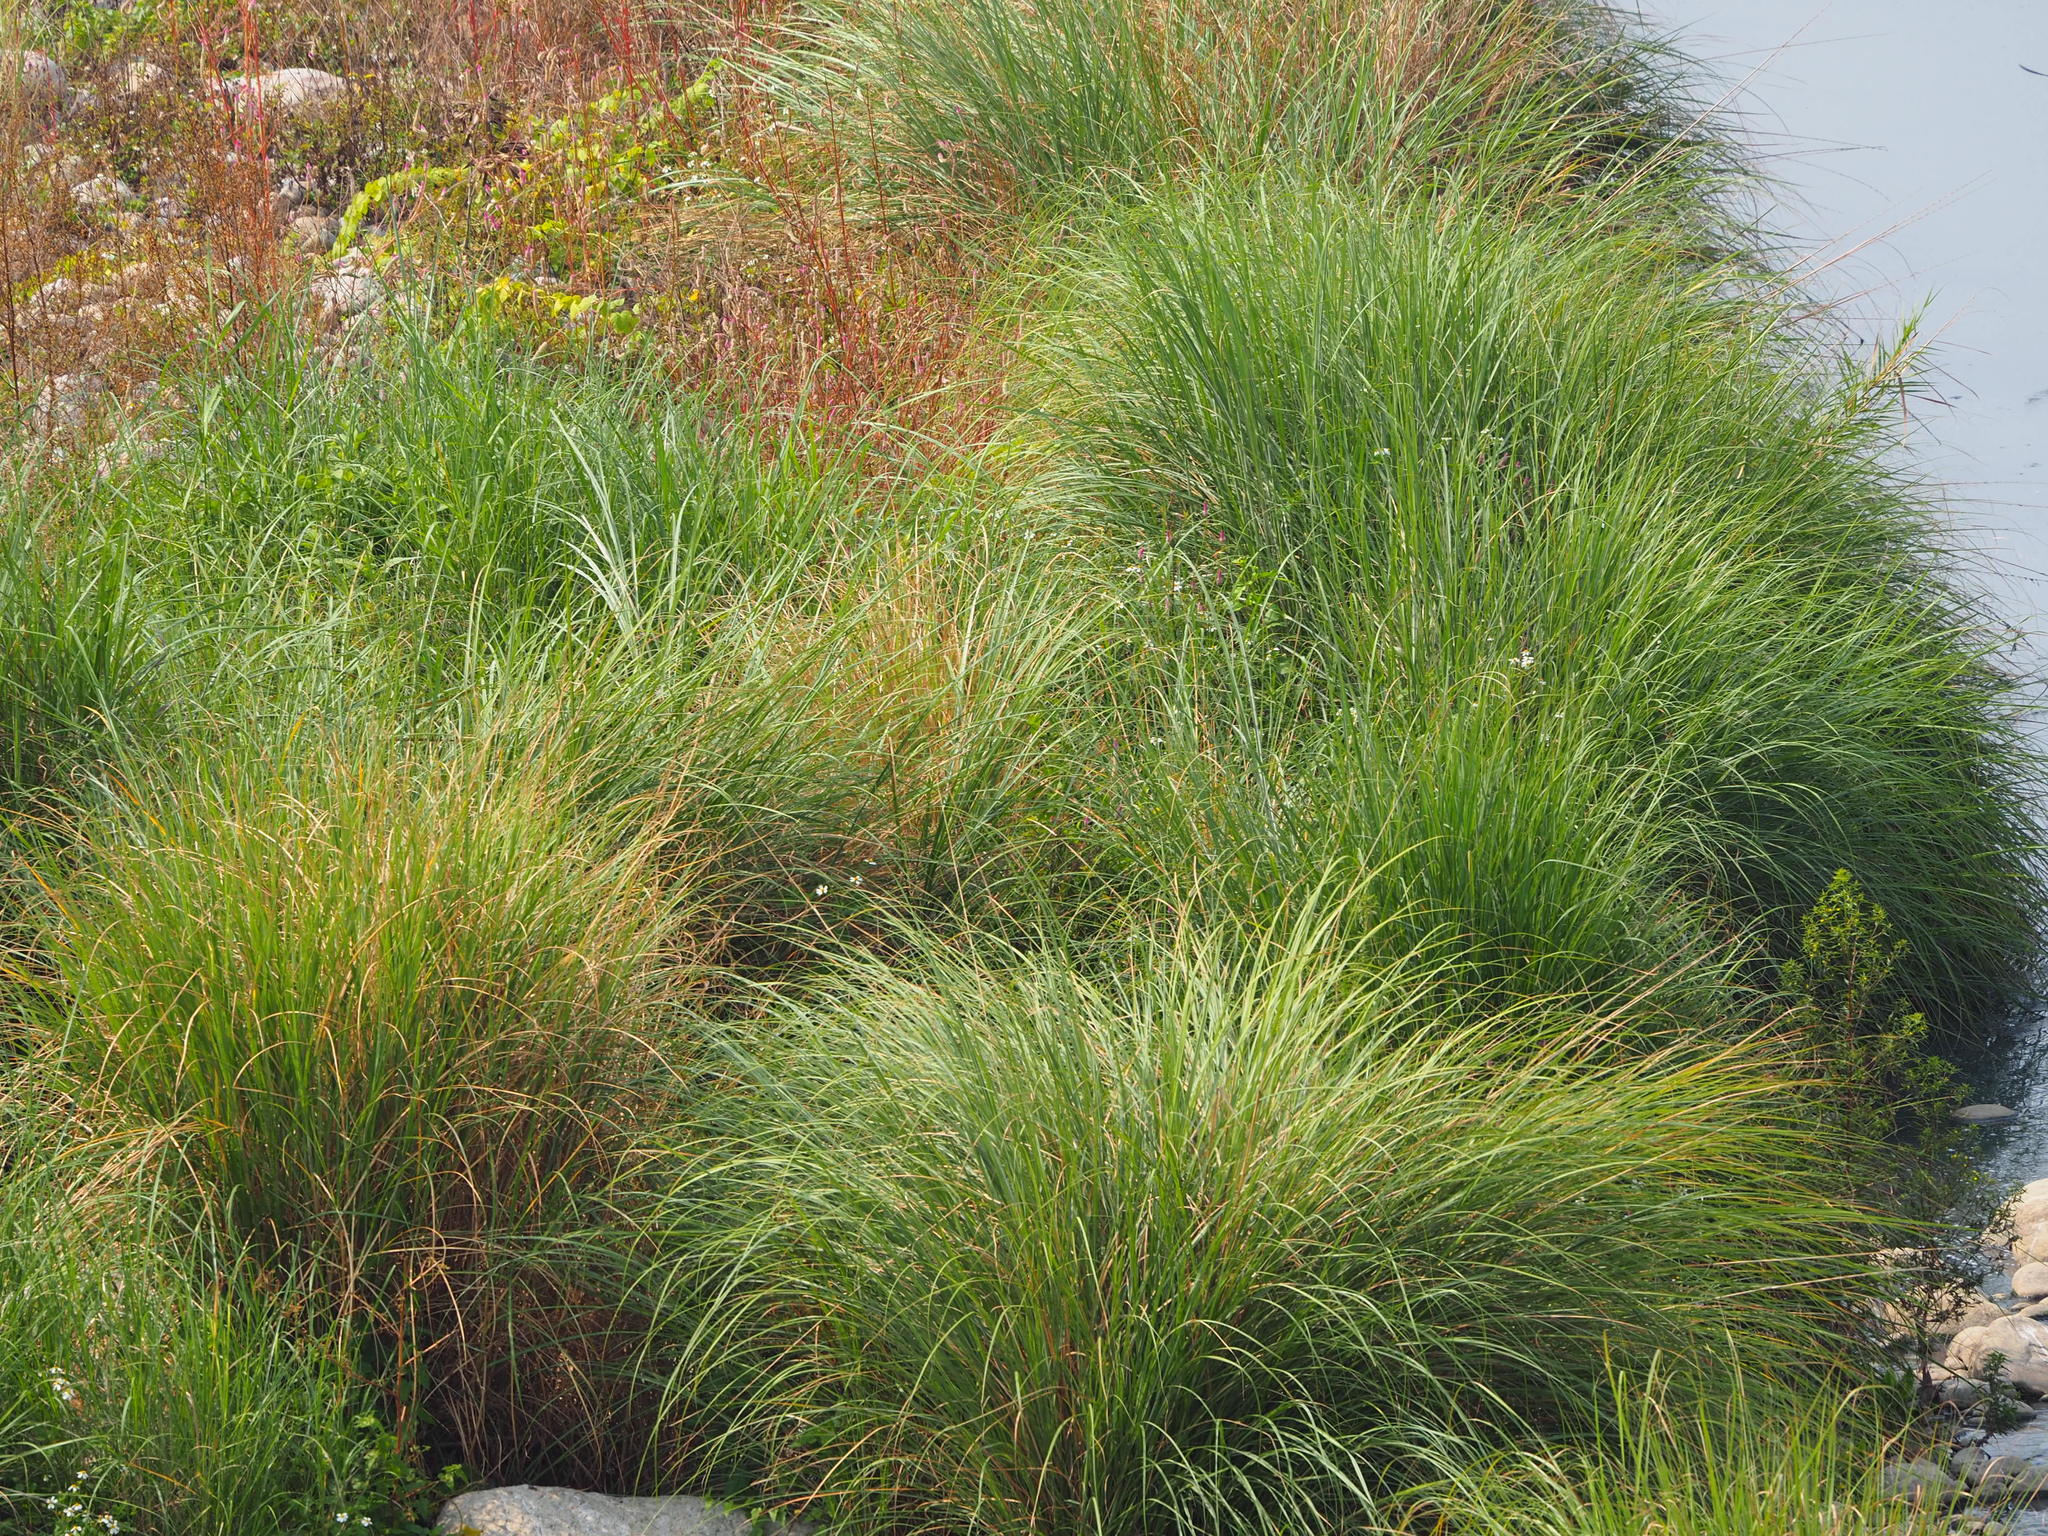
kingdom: Plantae
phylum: Tracheophyta
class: Liliopsida
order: Poales
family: Poaceae
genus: Saccharum
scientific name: Saccharum spontaneum
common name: Wild sugarcane
